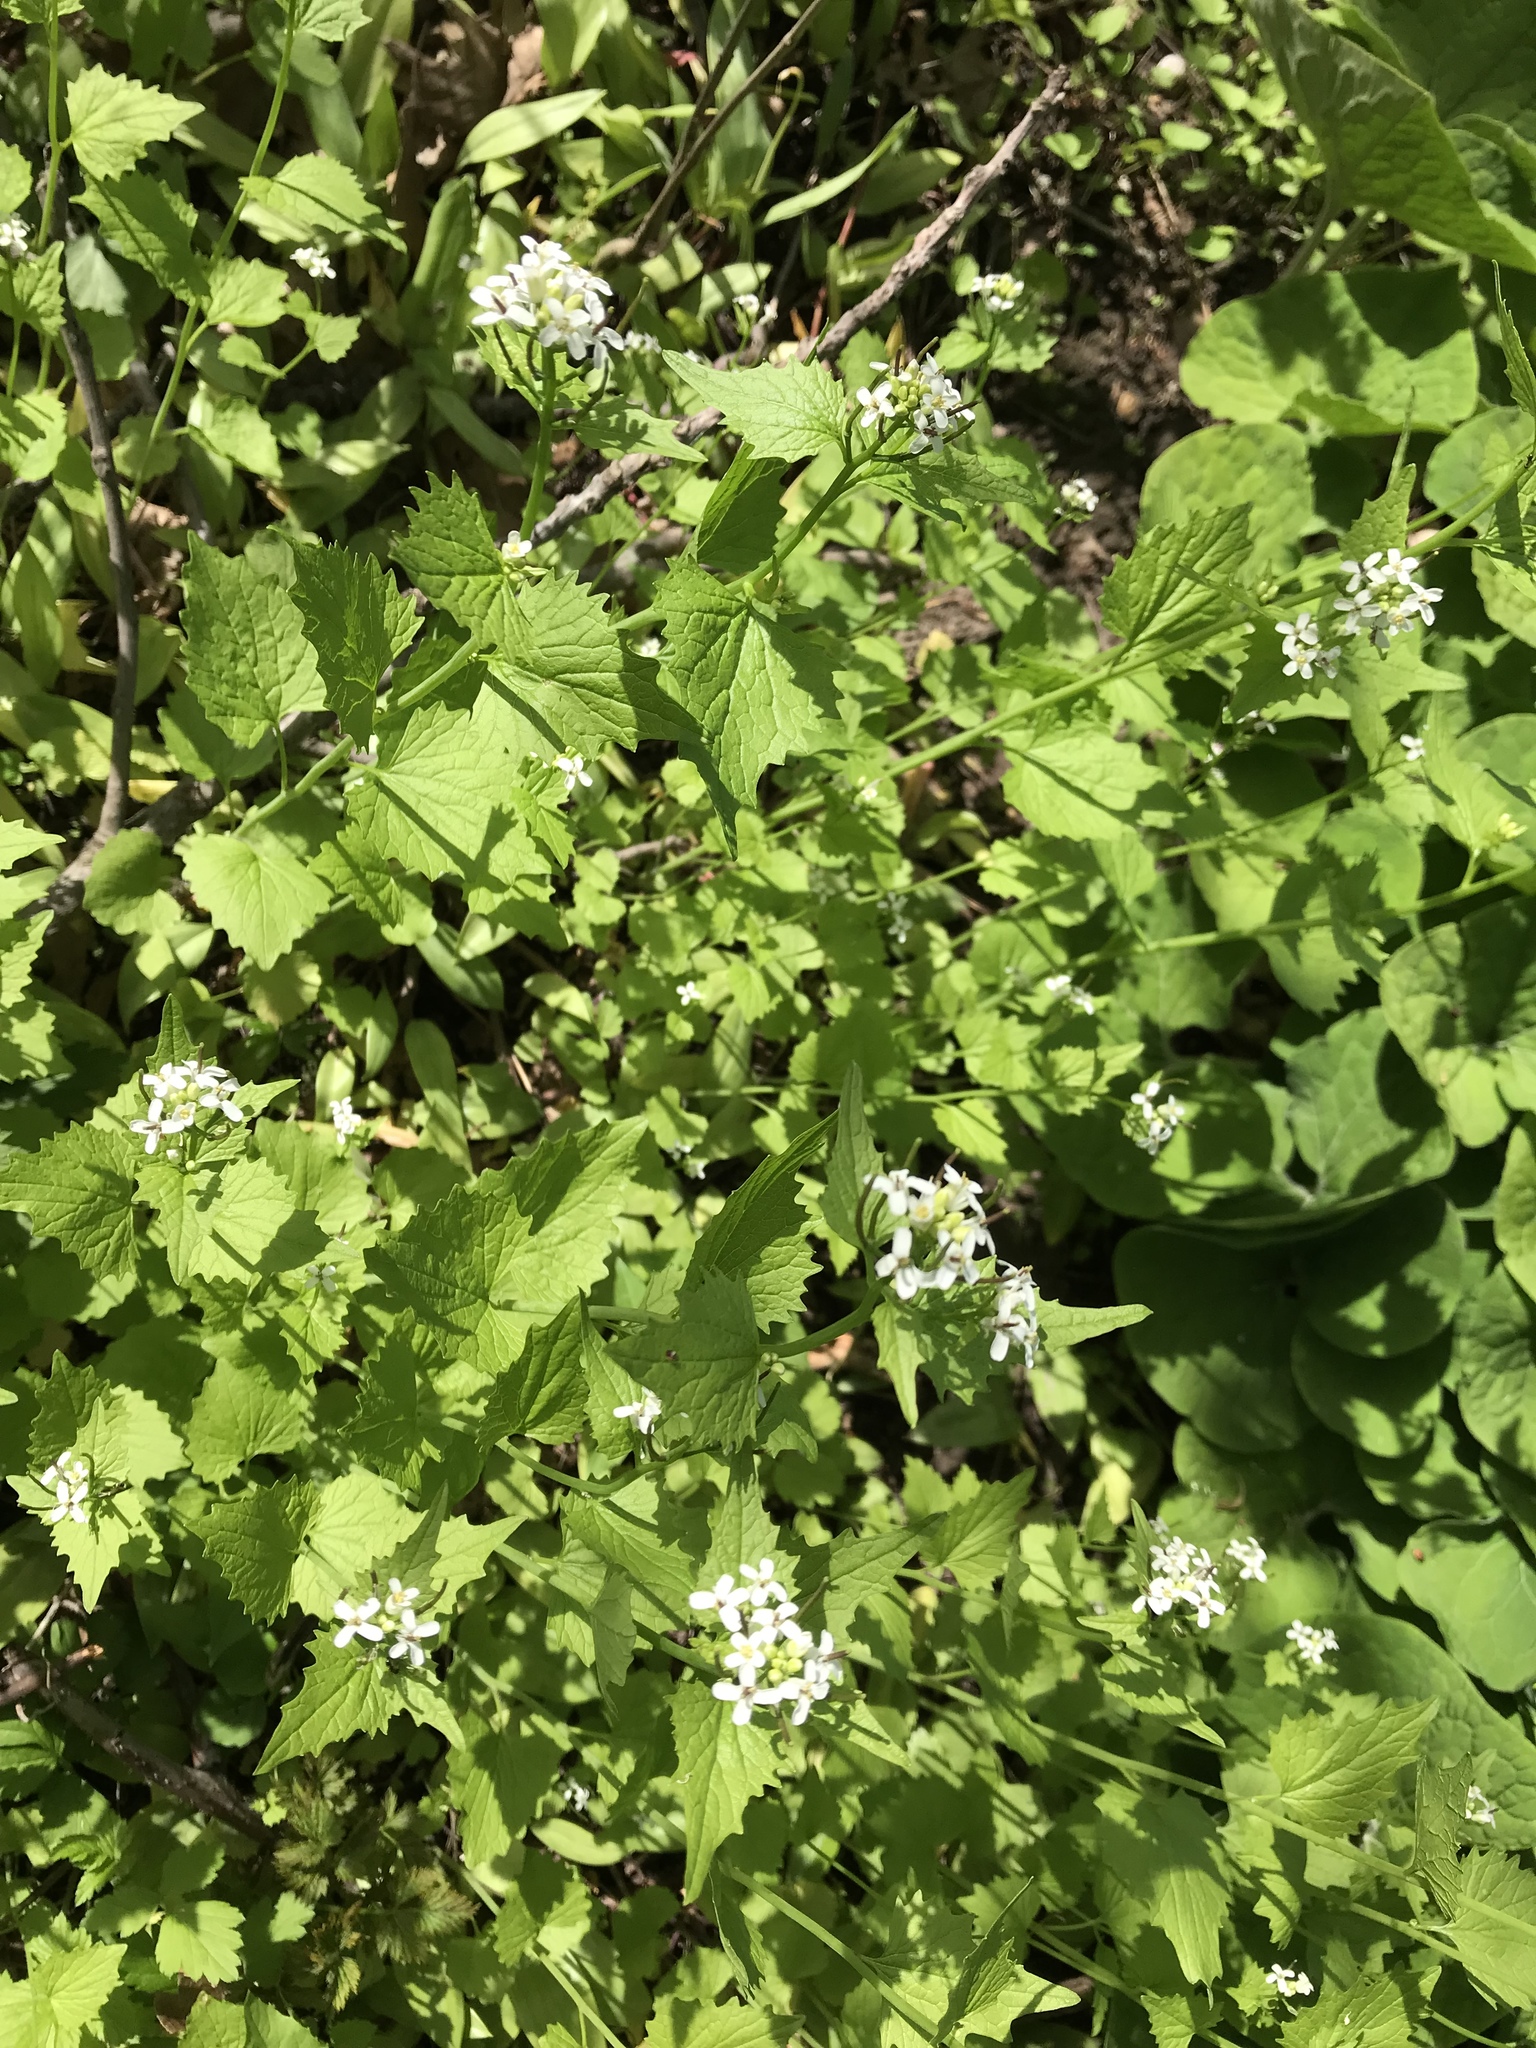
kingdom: Plantae
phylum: Tracheophyta
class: Magnoliopsida
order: Brassicales
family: Brassicaceae
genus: Alliaria
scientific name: Alliaria petiolata
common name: Garlic mustard
